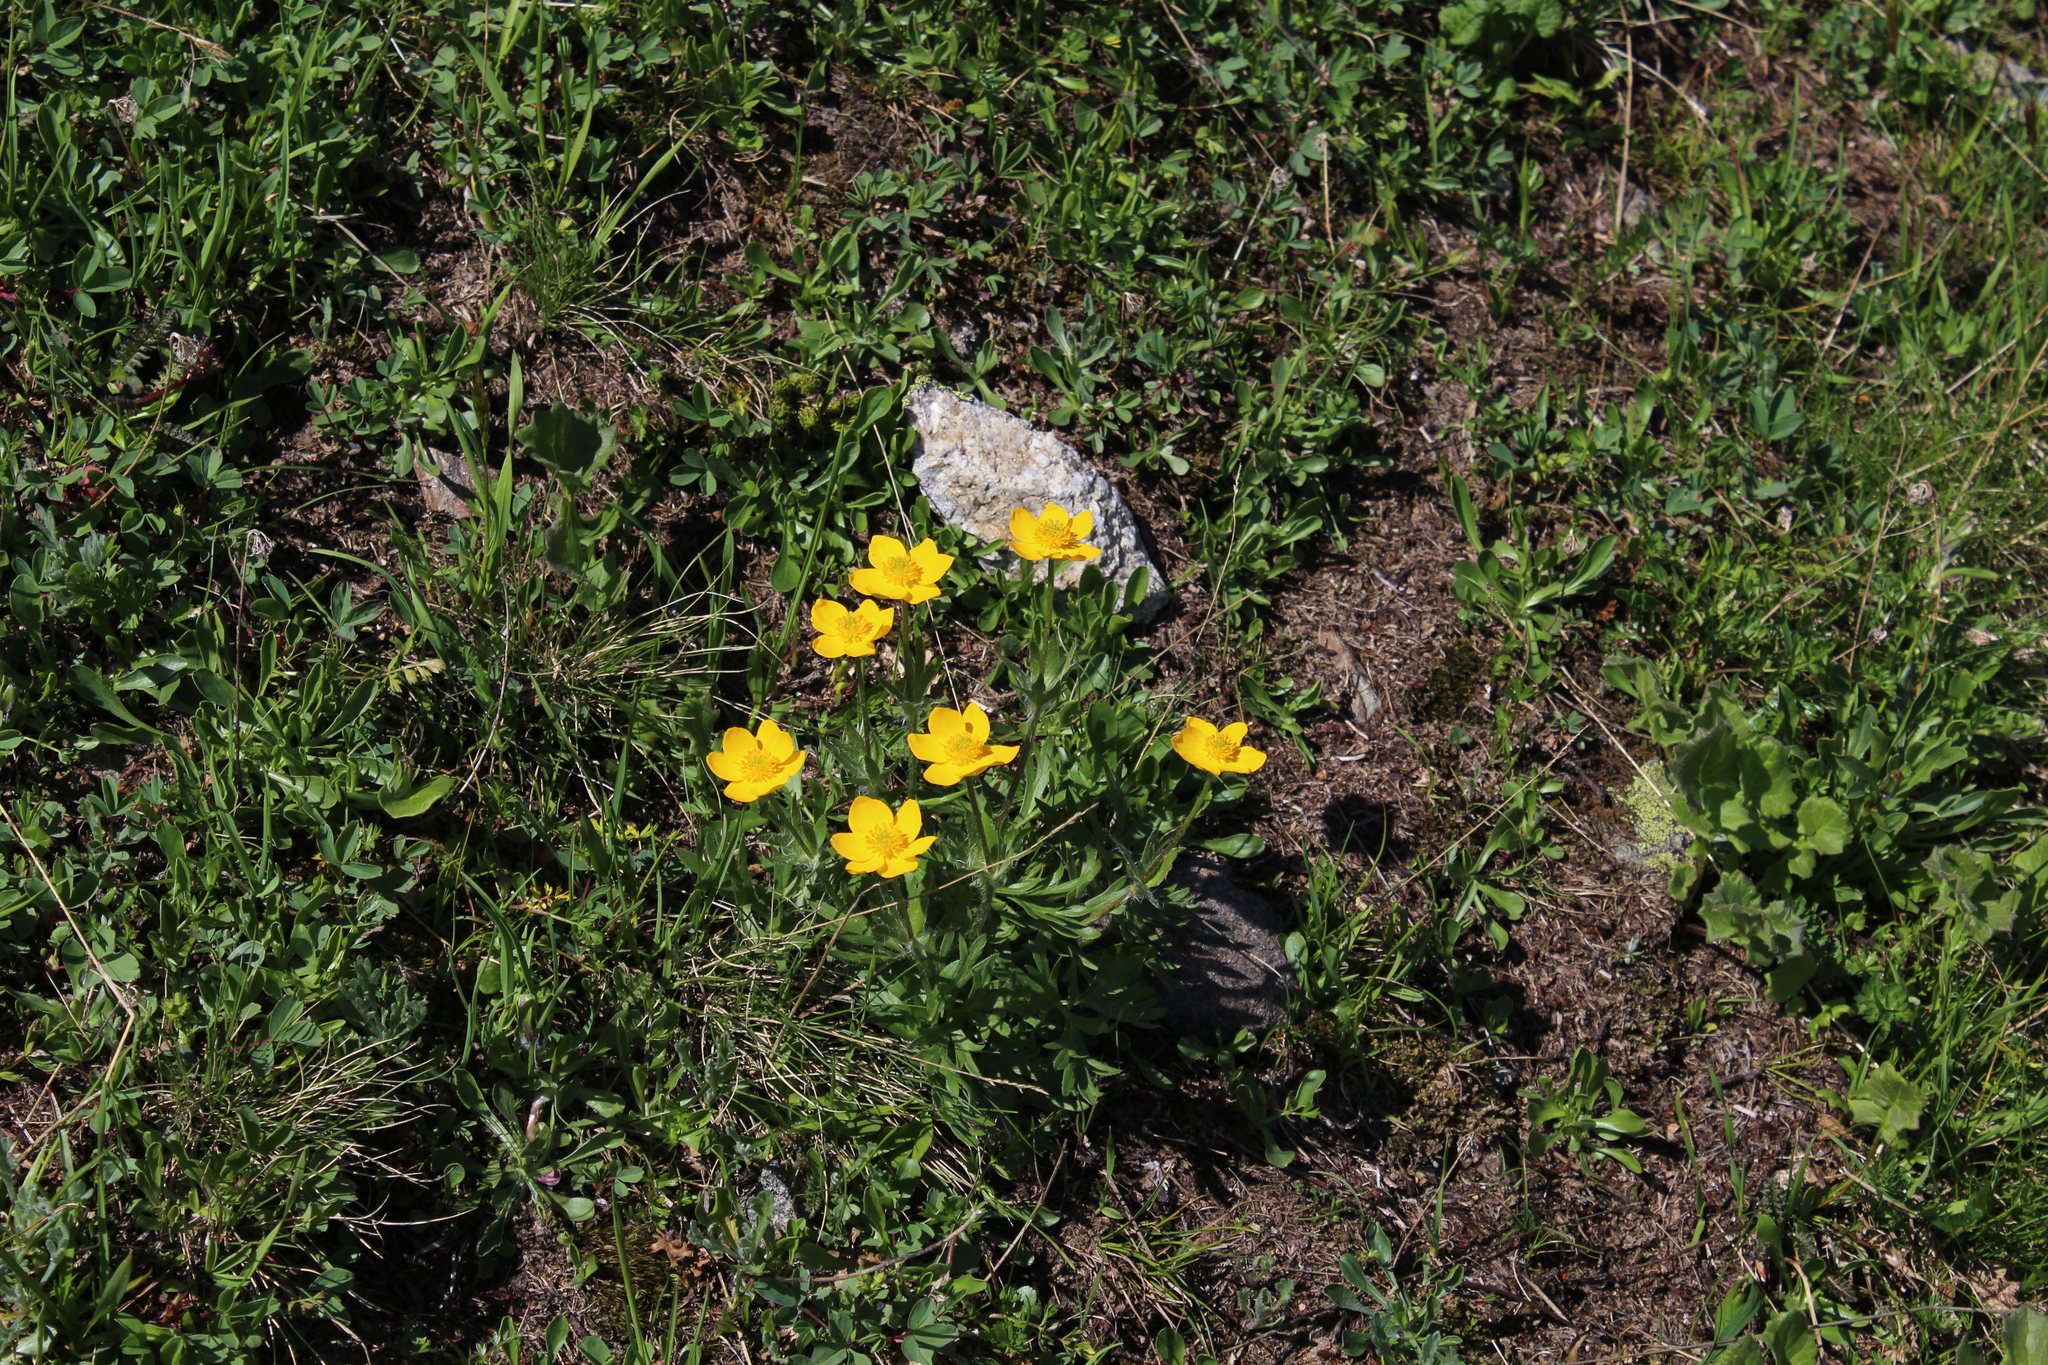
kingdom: Plantae
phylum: Tracheophyta
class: Magnoliopsida
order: Ranunculales
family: Ranunculaceae
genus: Anemonastrum
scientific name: Anemonastrum narcissiflorum
